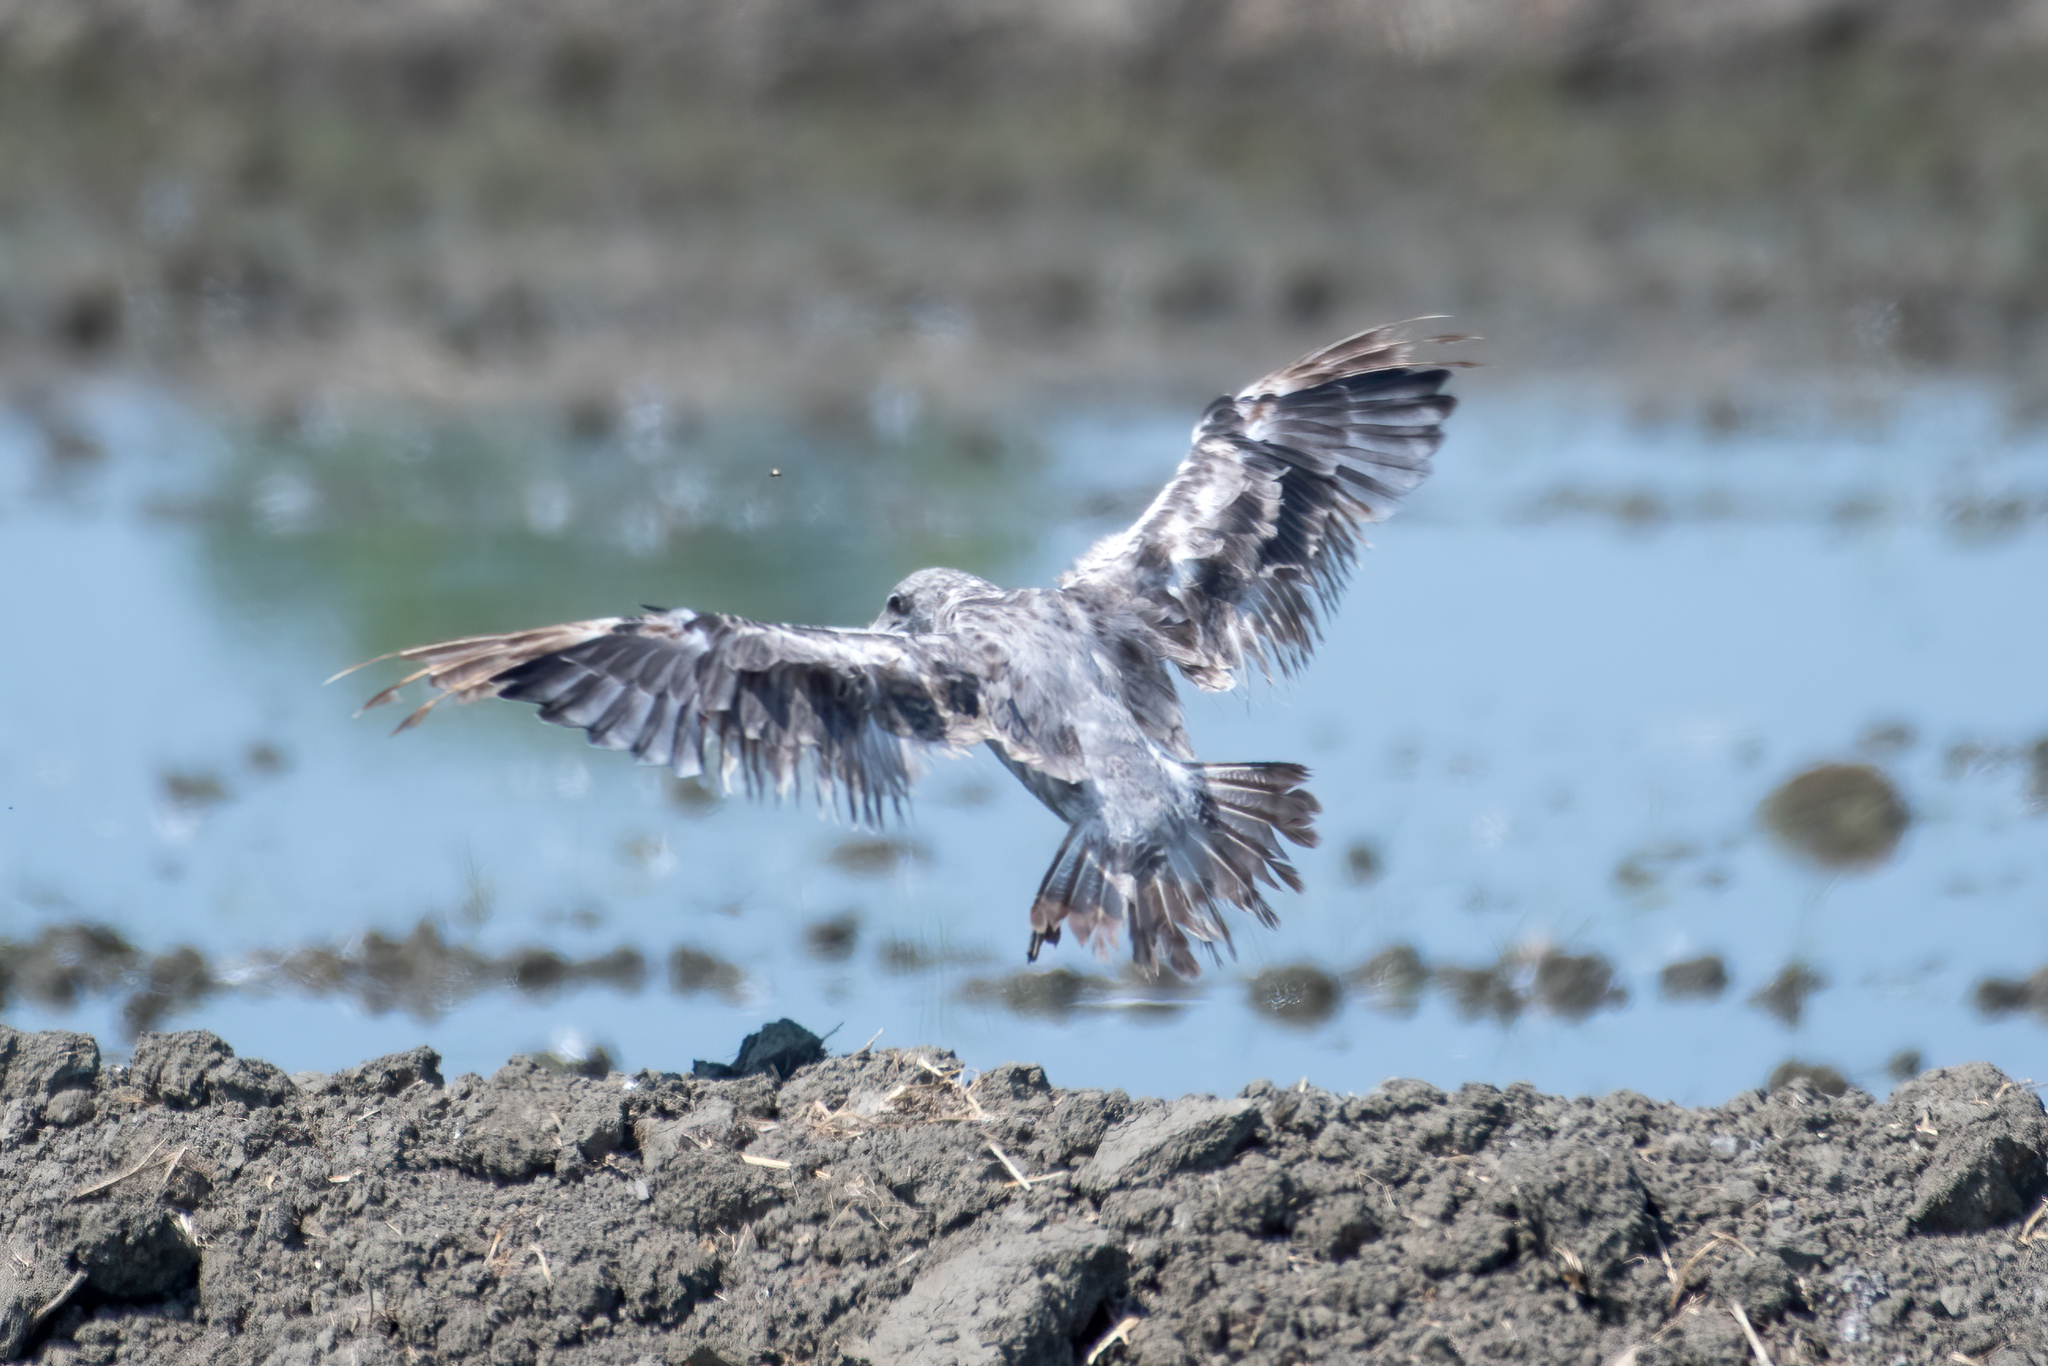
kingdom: Animalia
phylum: Chordata
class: Aves
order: Charadriiformes
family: Laridae
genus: Larus
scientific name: Larus californicus
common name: California gull
